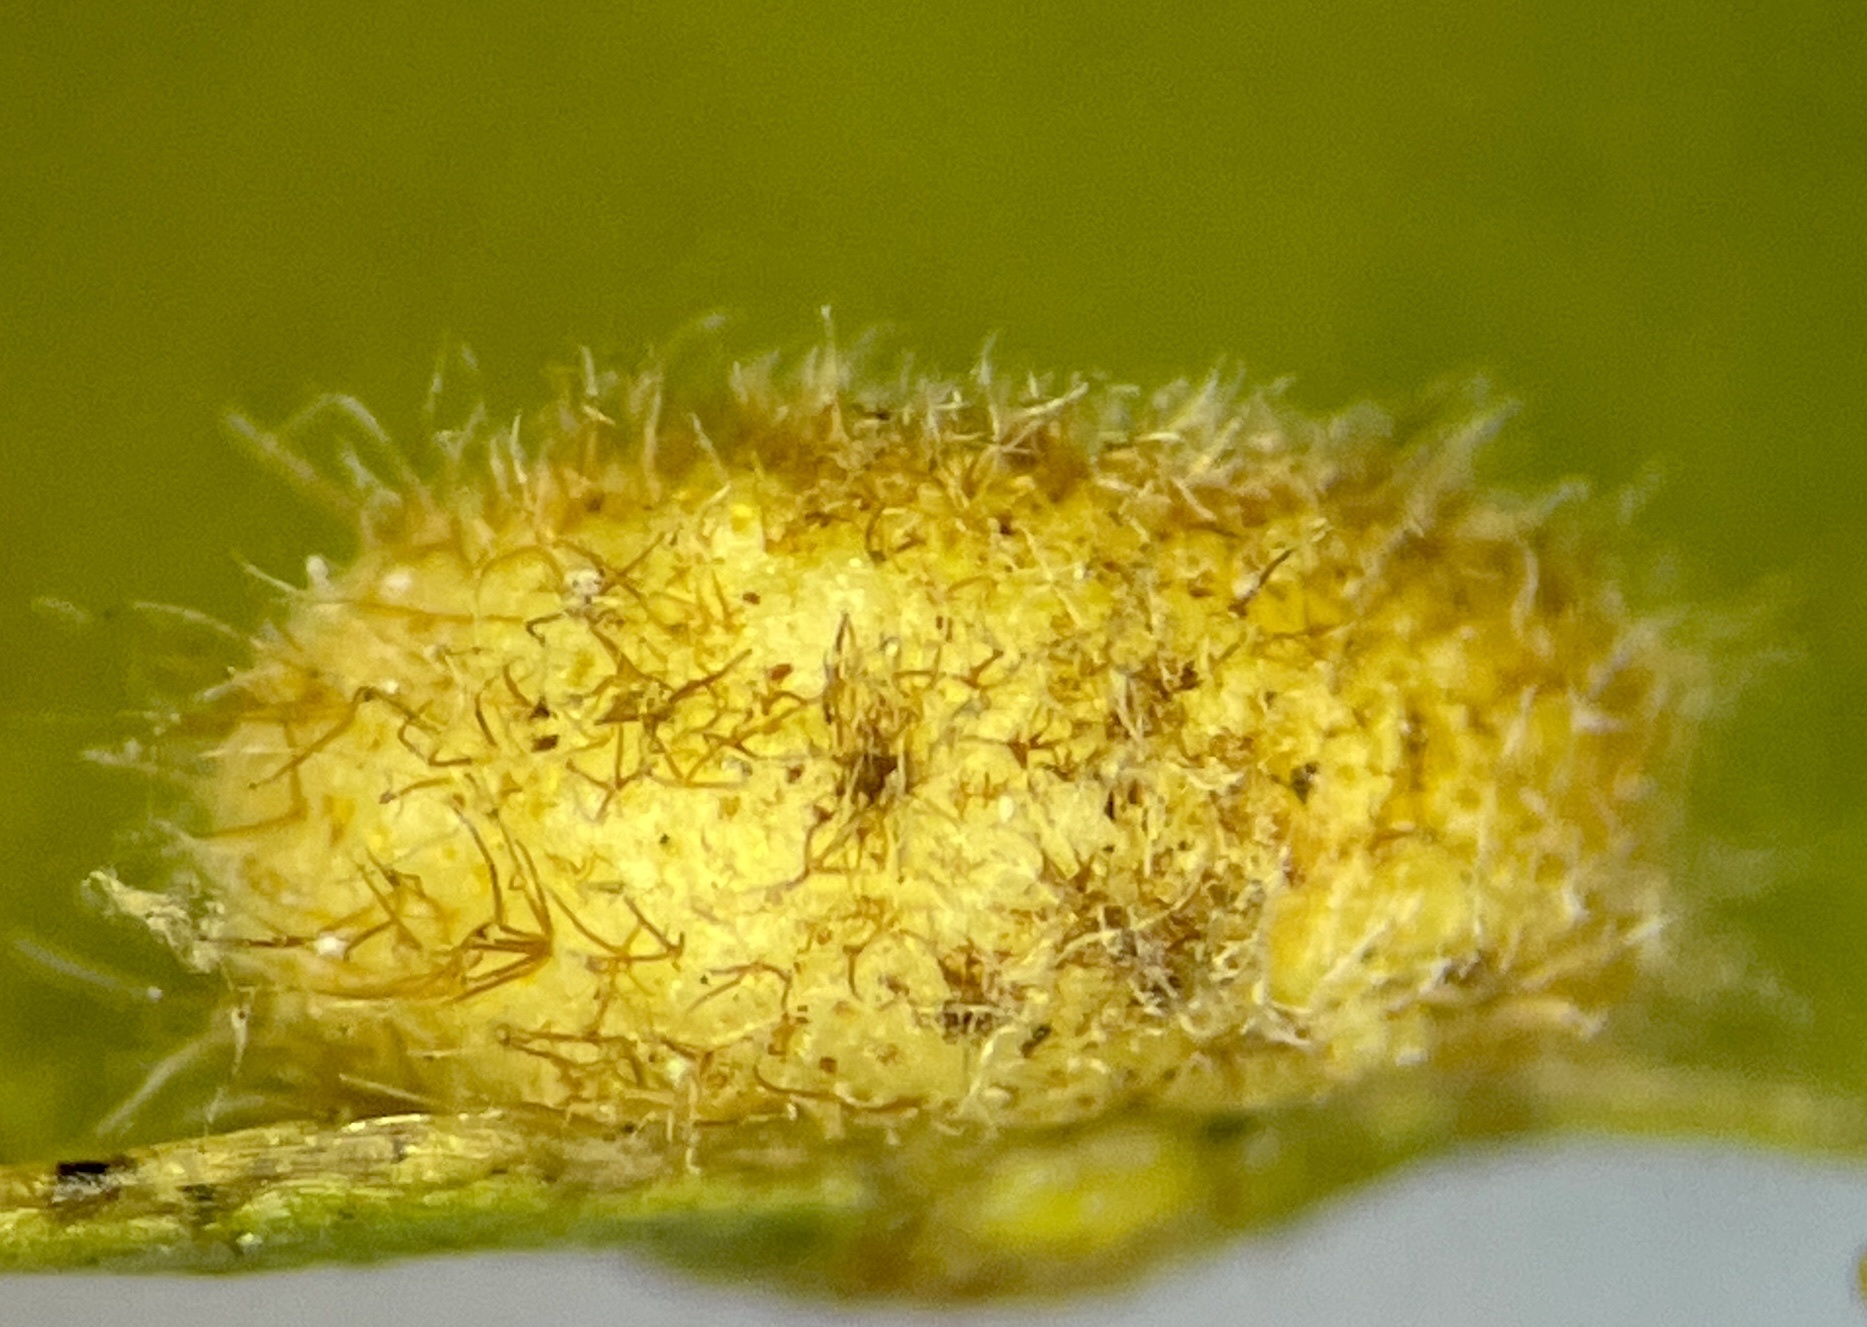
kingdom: Animalia
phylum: Arthropoda
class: Insecta
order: Diptera
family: Cecidomyiidae
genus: Caryomyia
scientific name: Caryomyia thompsoni
